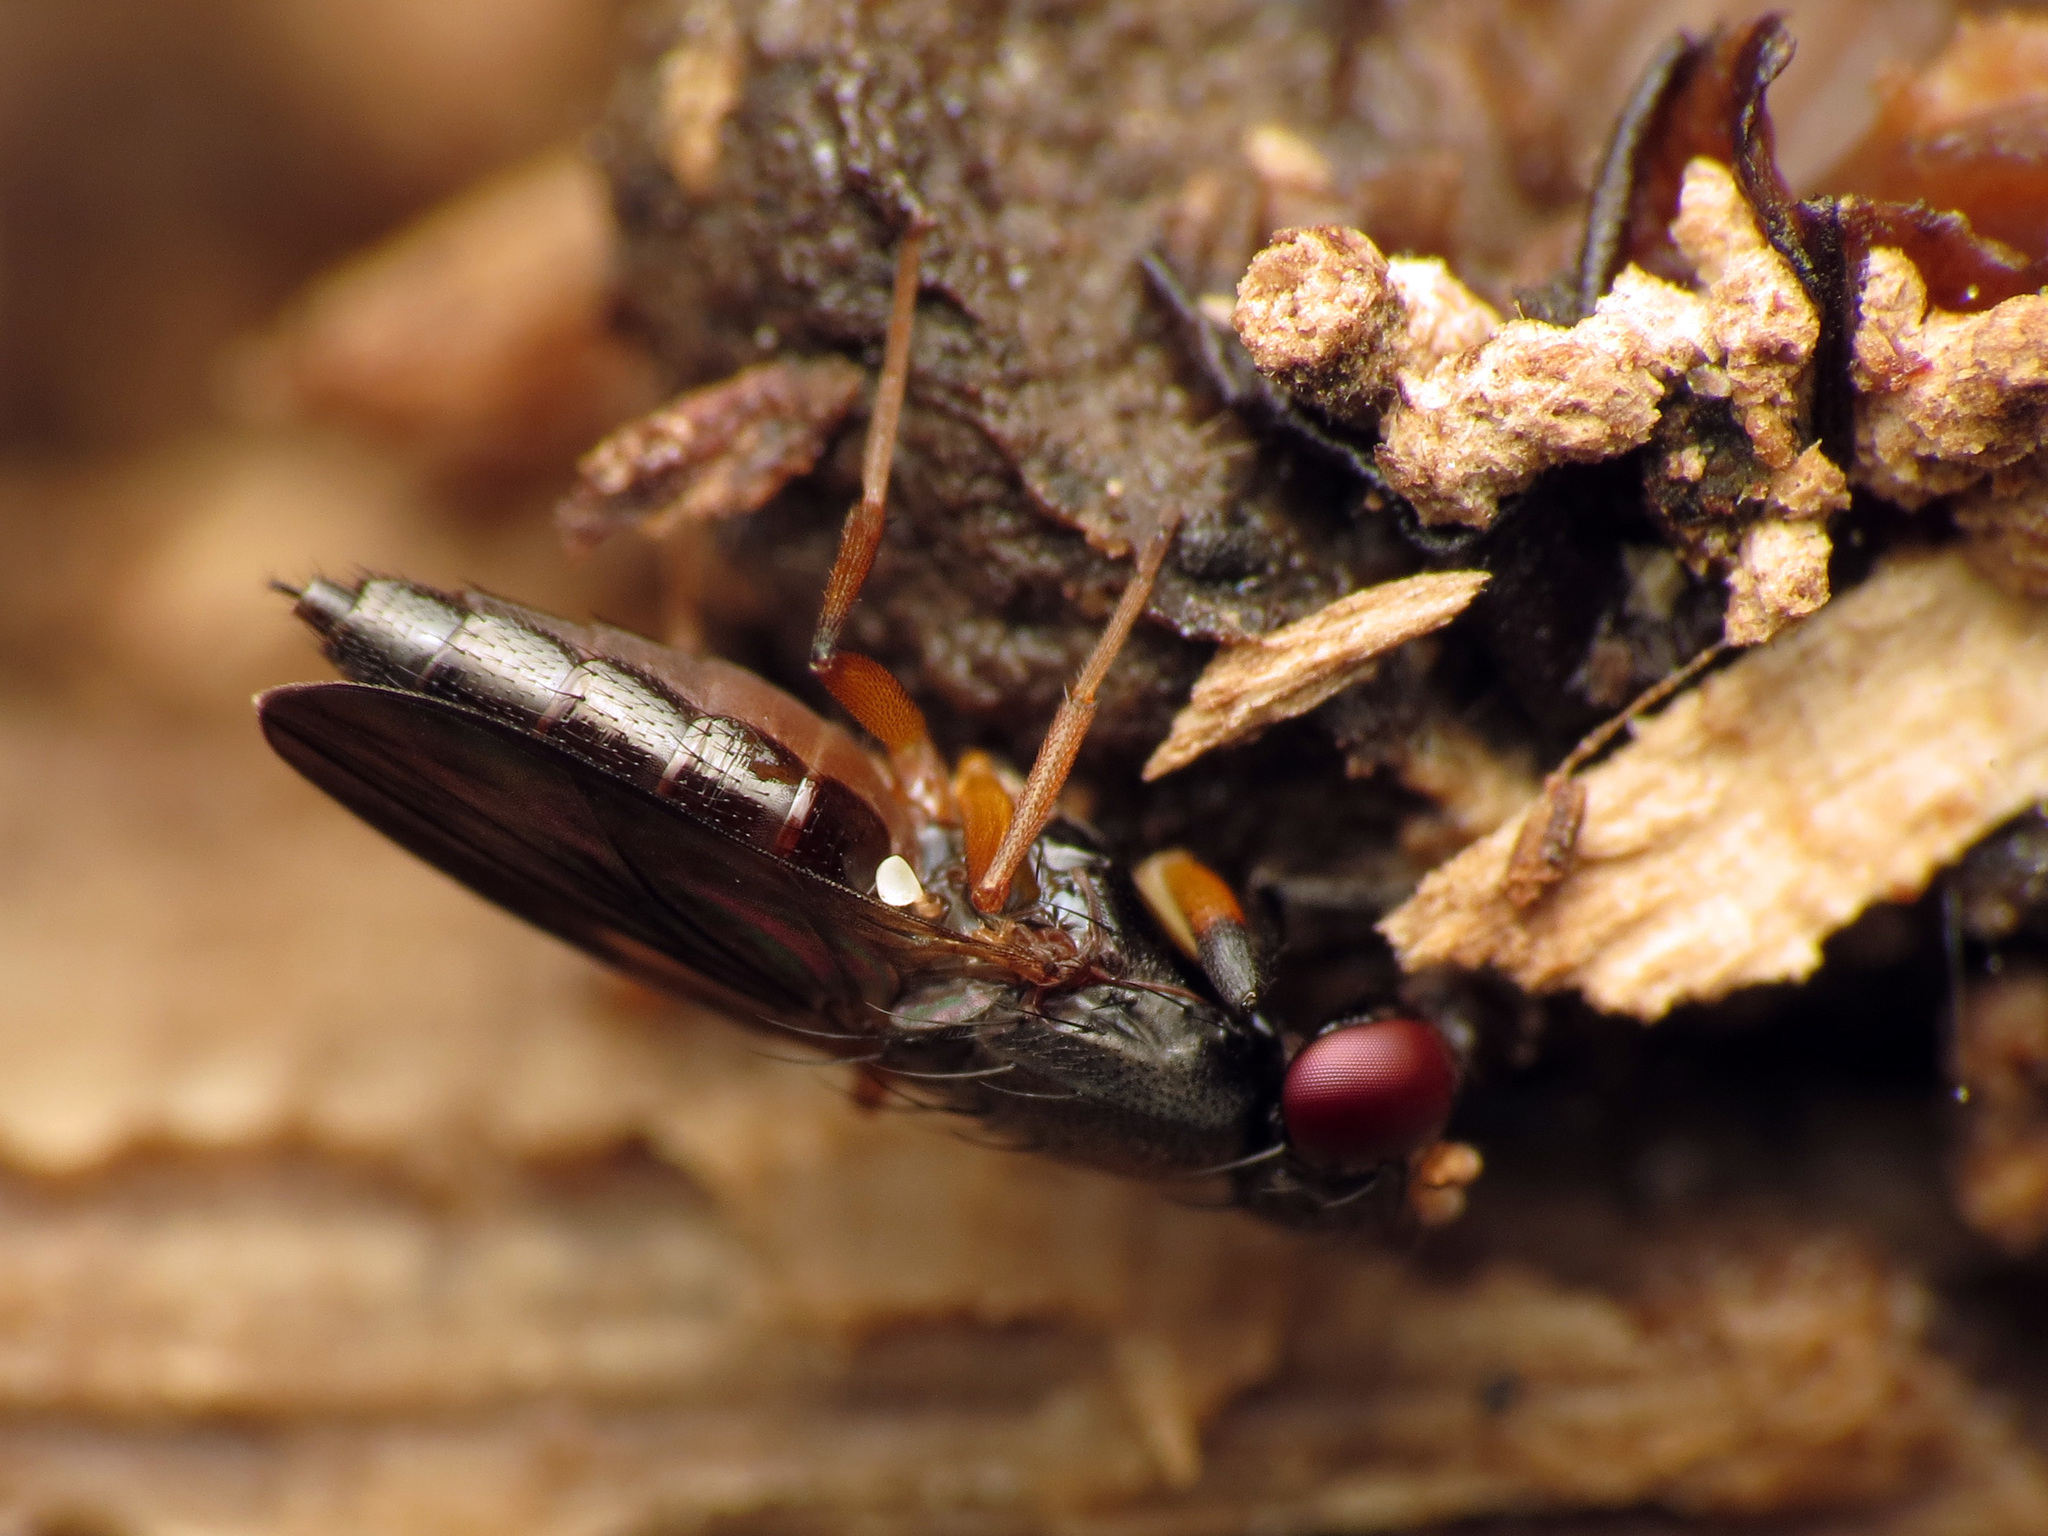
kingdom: Animalia
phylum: Arthropoda
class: Insecta
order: Diptera
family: Clusiidae
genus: Heteromeringia
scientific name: Heteromeringia nitida
